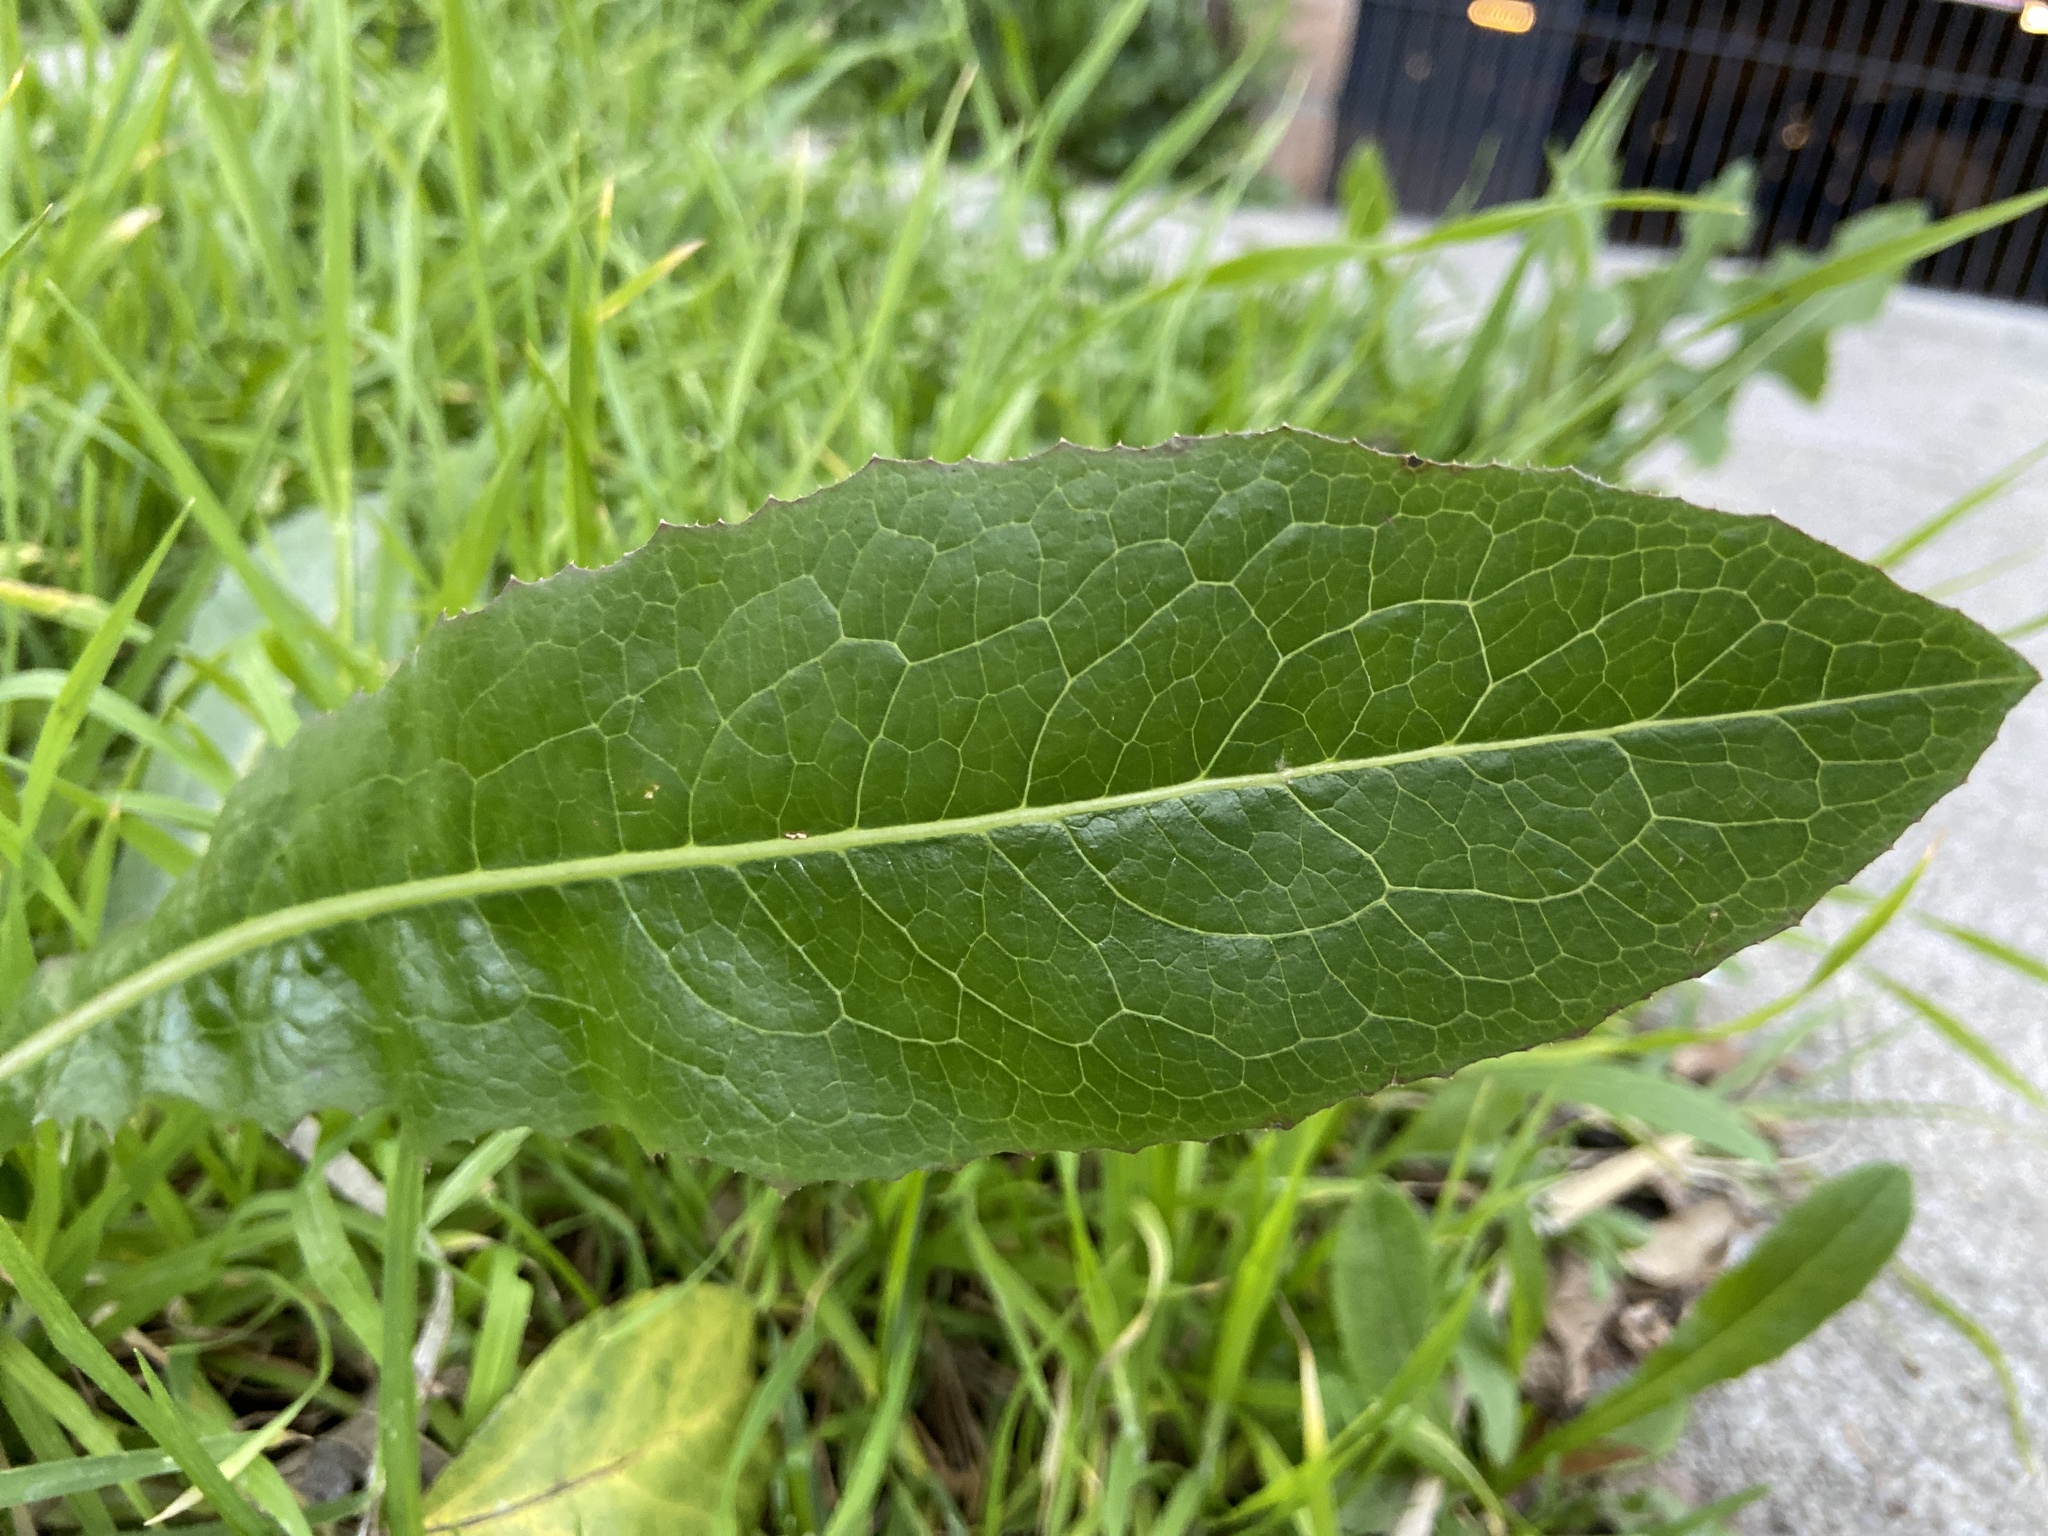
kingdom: Plantae
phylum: Tracheophyta
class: Magnoliopsida
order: Asterales
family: Asteraceae
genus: Lactuca
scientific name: Lactuca serriola
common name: Prickly lettuce
